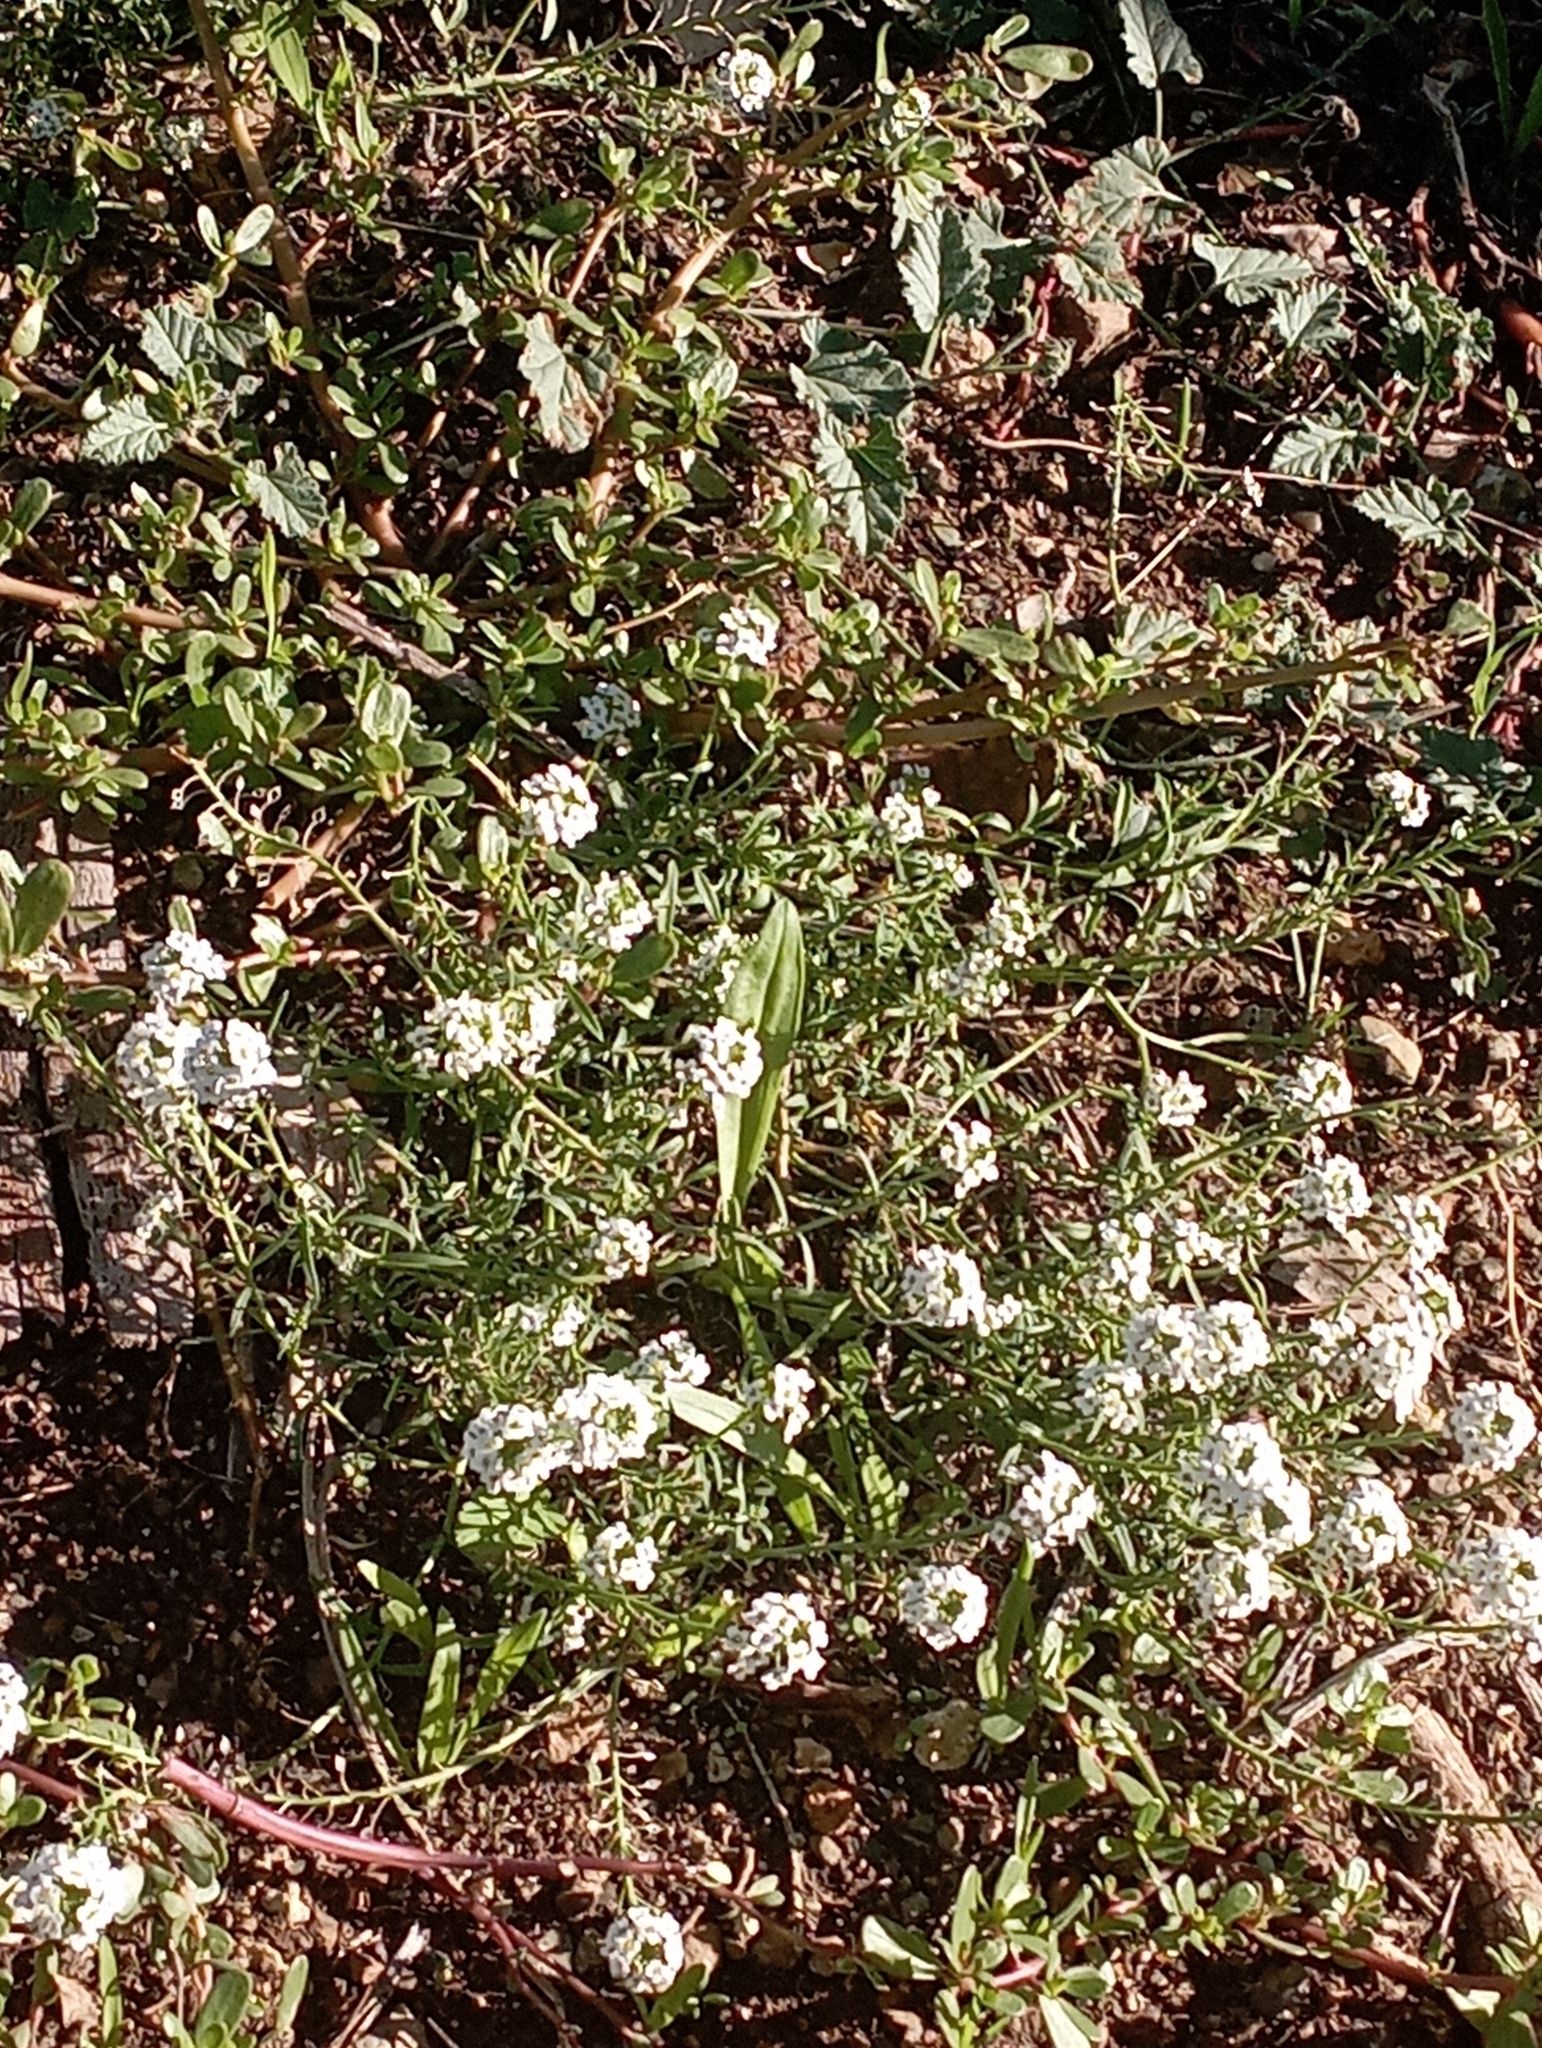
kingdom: Plantae
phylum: Tracheophyta
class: Magnoliopsida
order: Brassicales
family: Brassicaceae
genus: Lobularia
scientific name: Lobularia maritima
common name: Sweet alison
